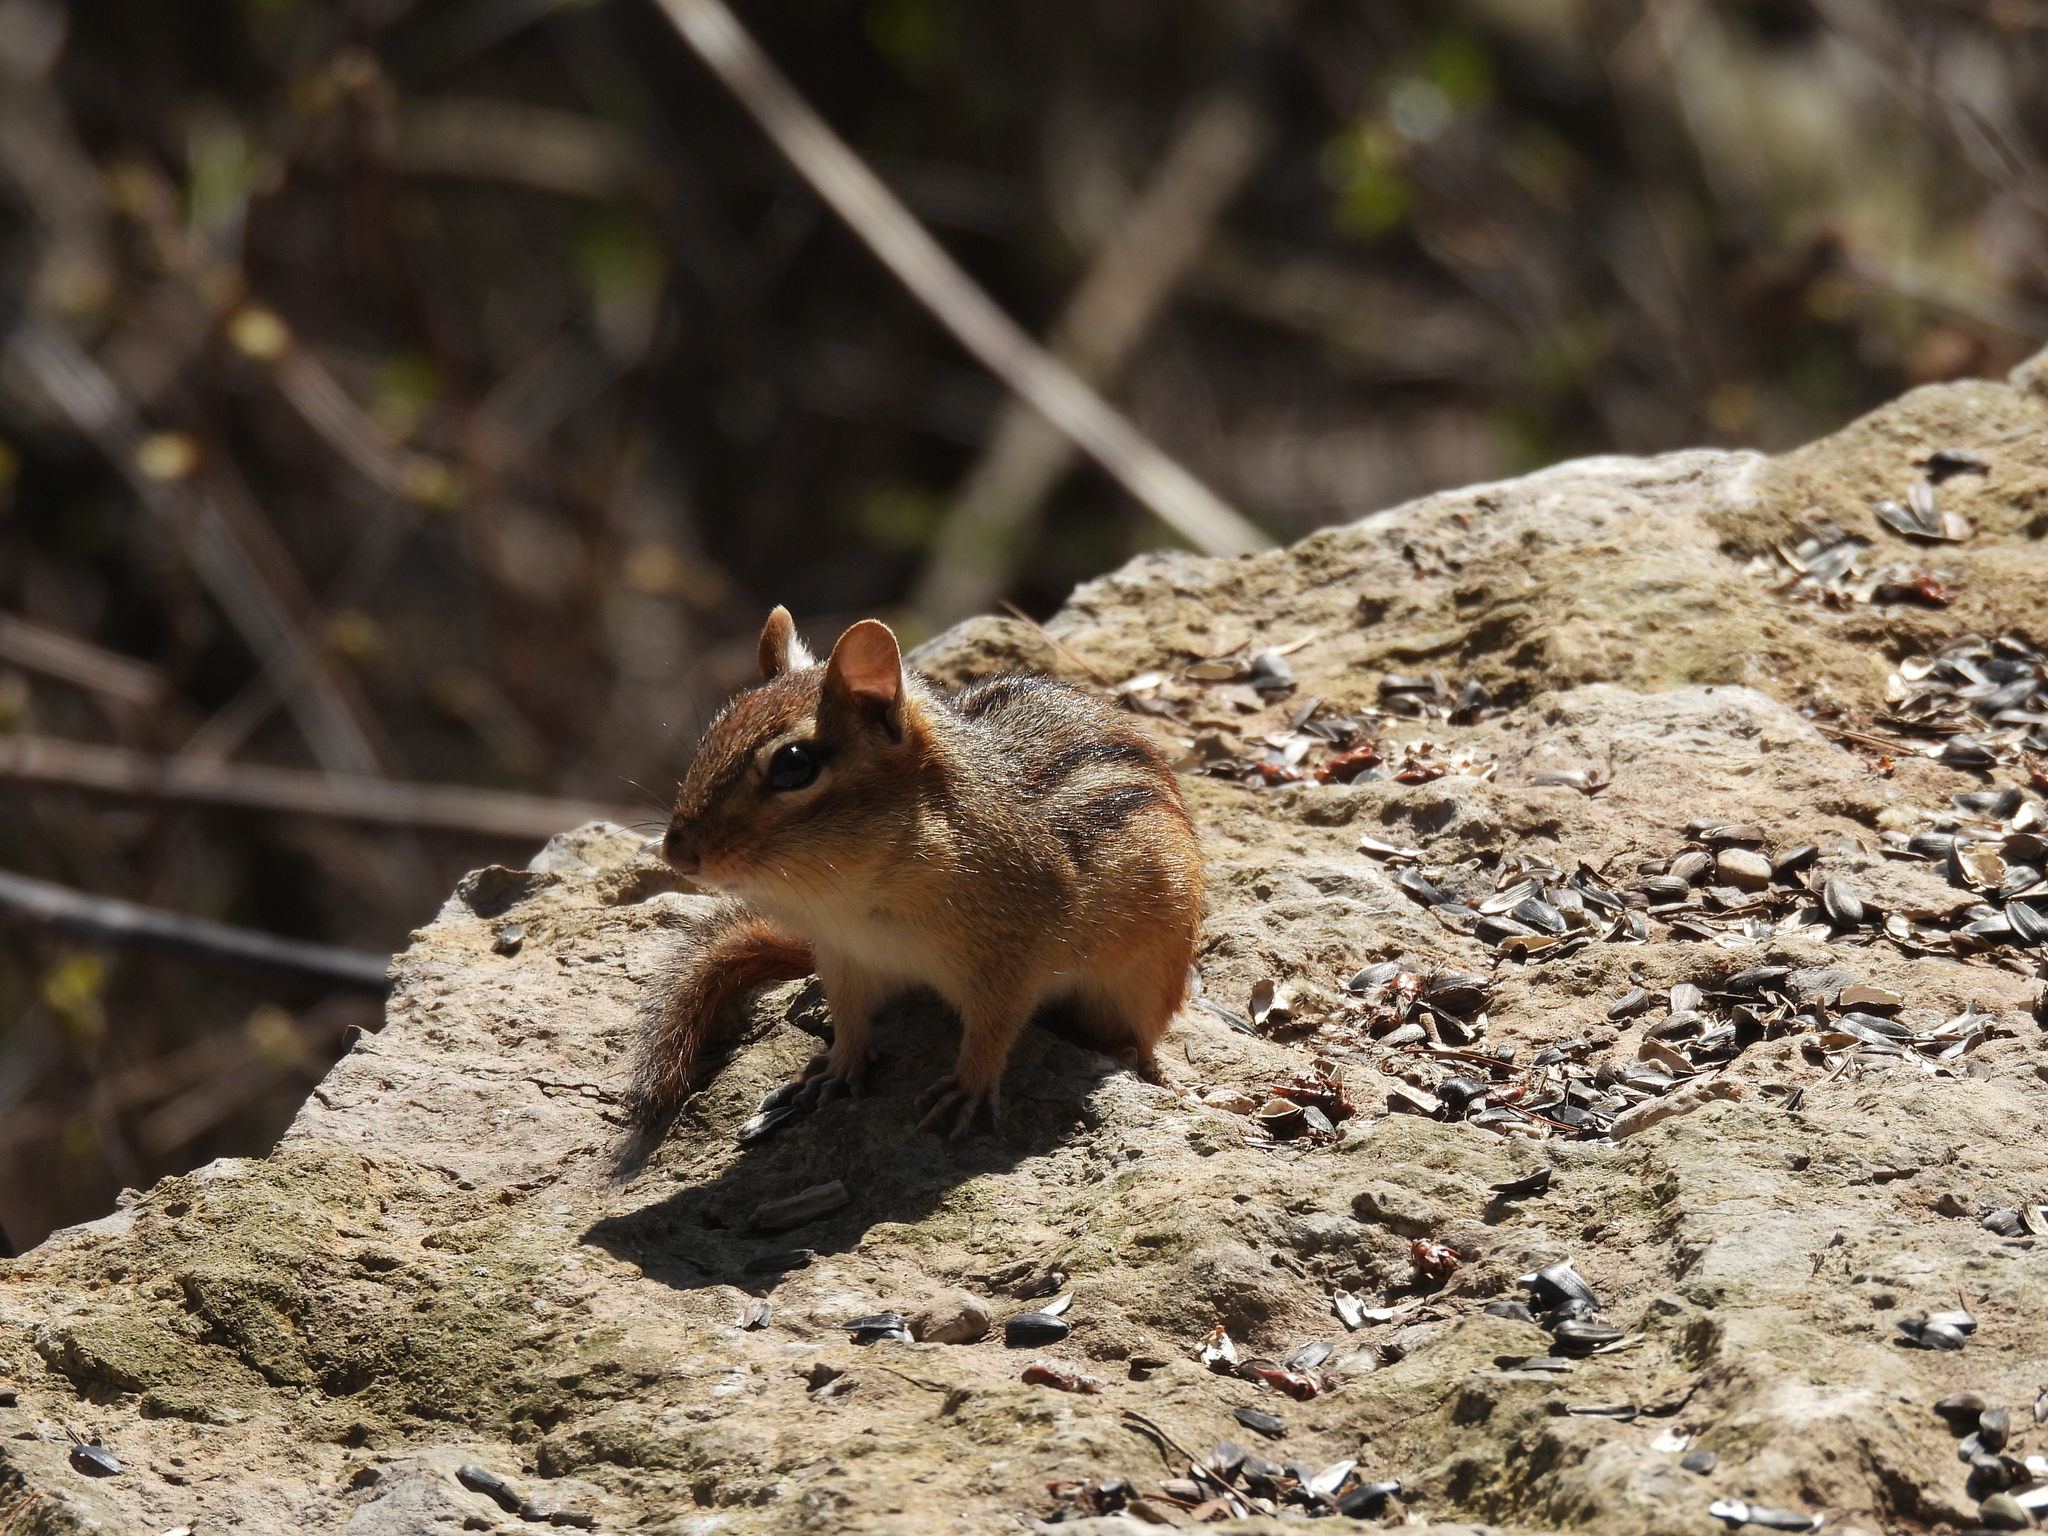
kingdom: Animalia
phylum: Chordata
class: Mammalia
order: Rodentia
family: Sciuridae
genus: Tamias
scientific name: Tamias striatus
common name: Eastern chipmunk
